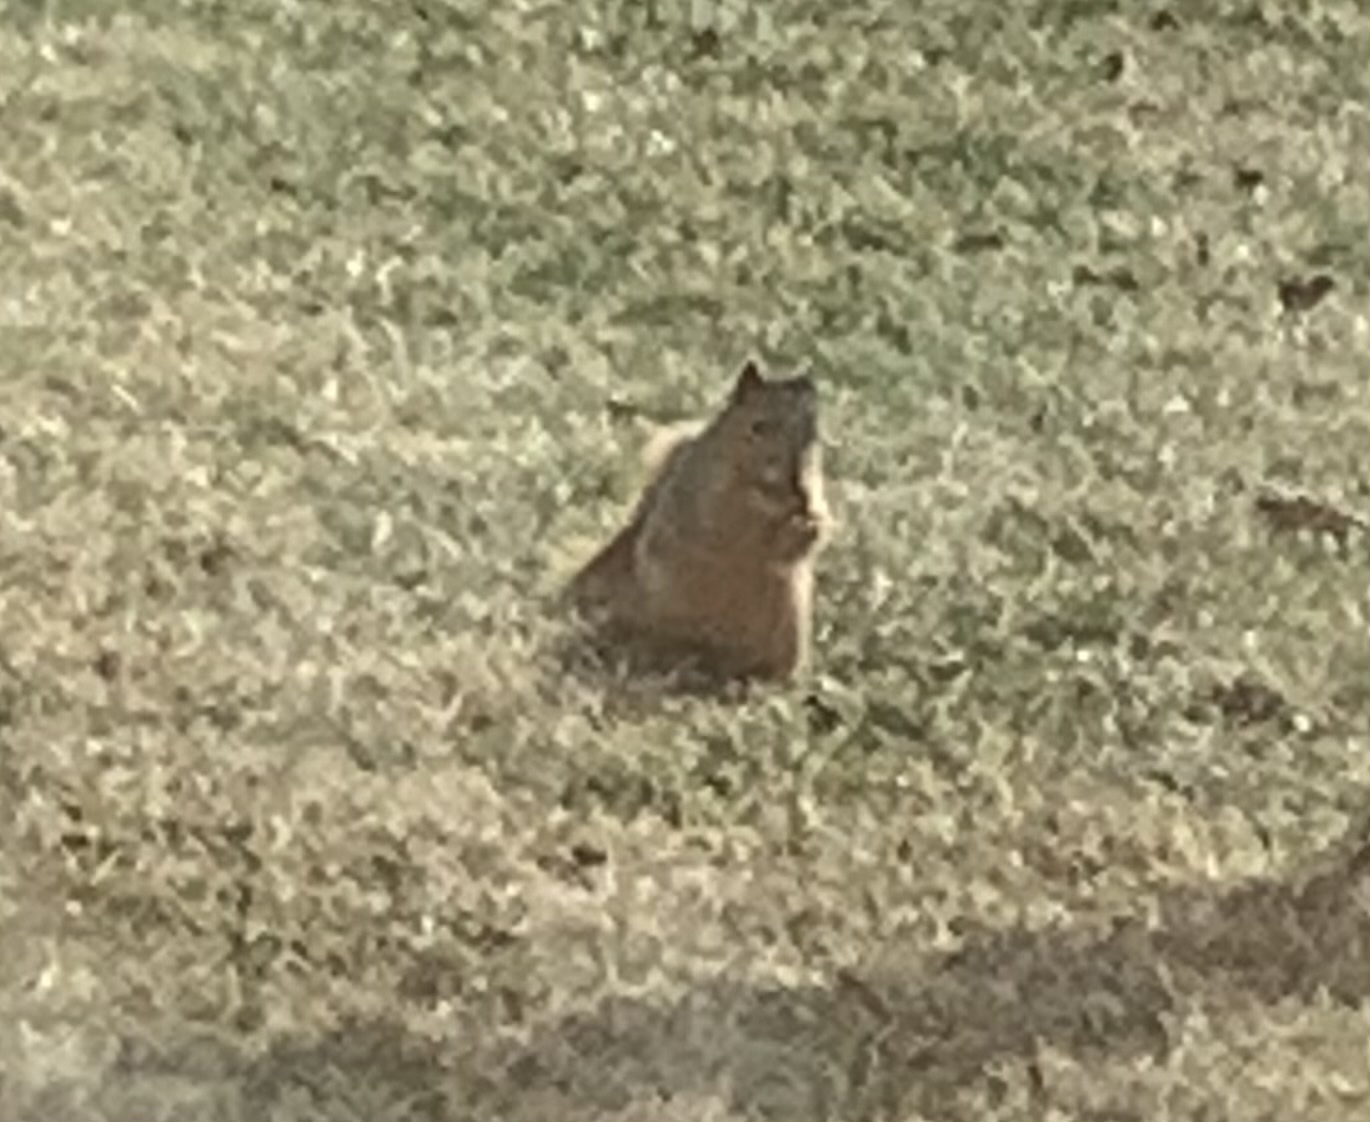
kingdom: Animalia
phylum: Chordata
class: Mammalia
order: Rodentia
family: Sciuridae
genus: Sciurus
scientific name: Sciurus niger
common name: Fox squirrel
